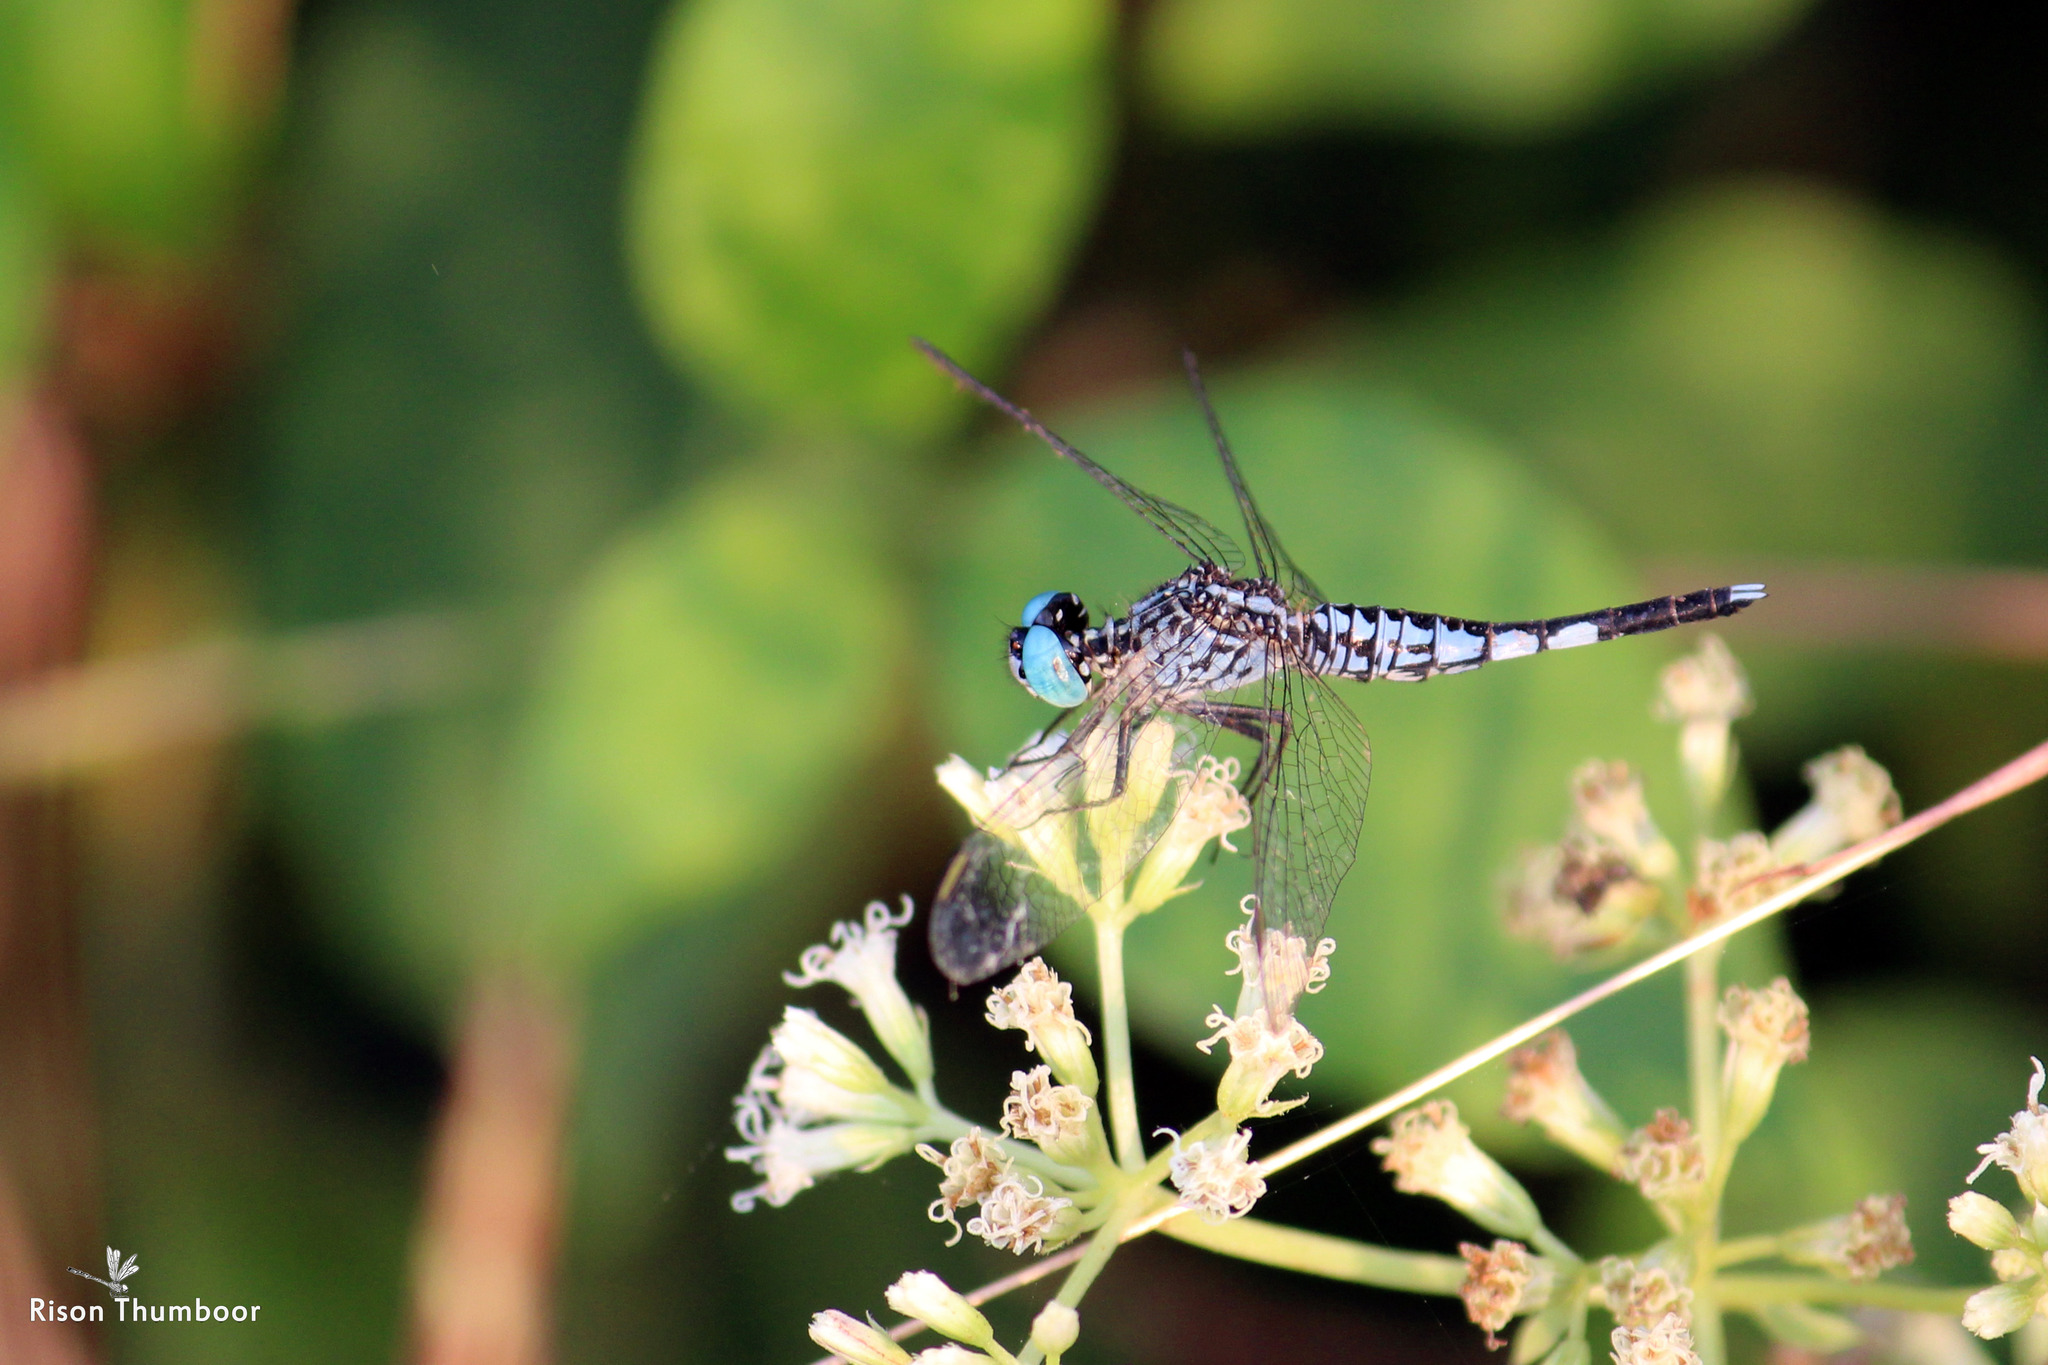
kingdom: Animalia
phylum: Arthropoda
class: Insecta
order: Odonata
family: Libellulidae
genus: Acisoma
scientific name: Acisoma panorpoides
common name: Asian pintail
